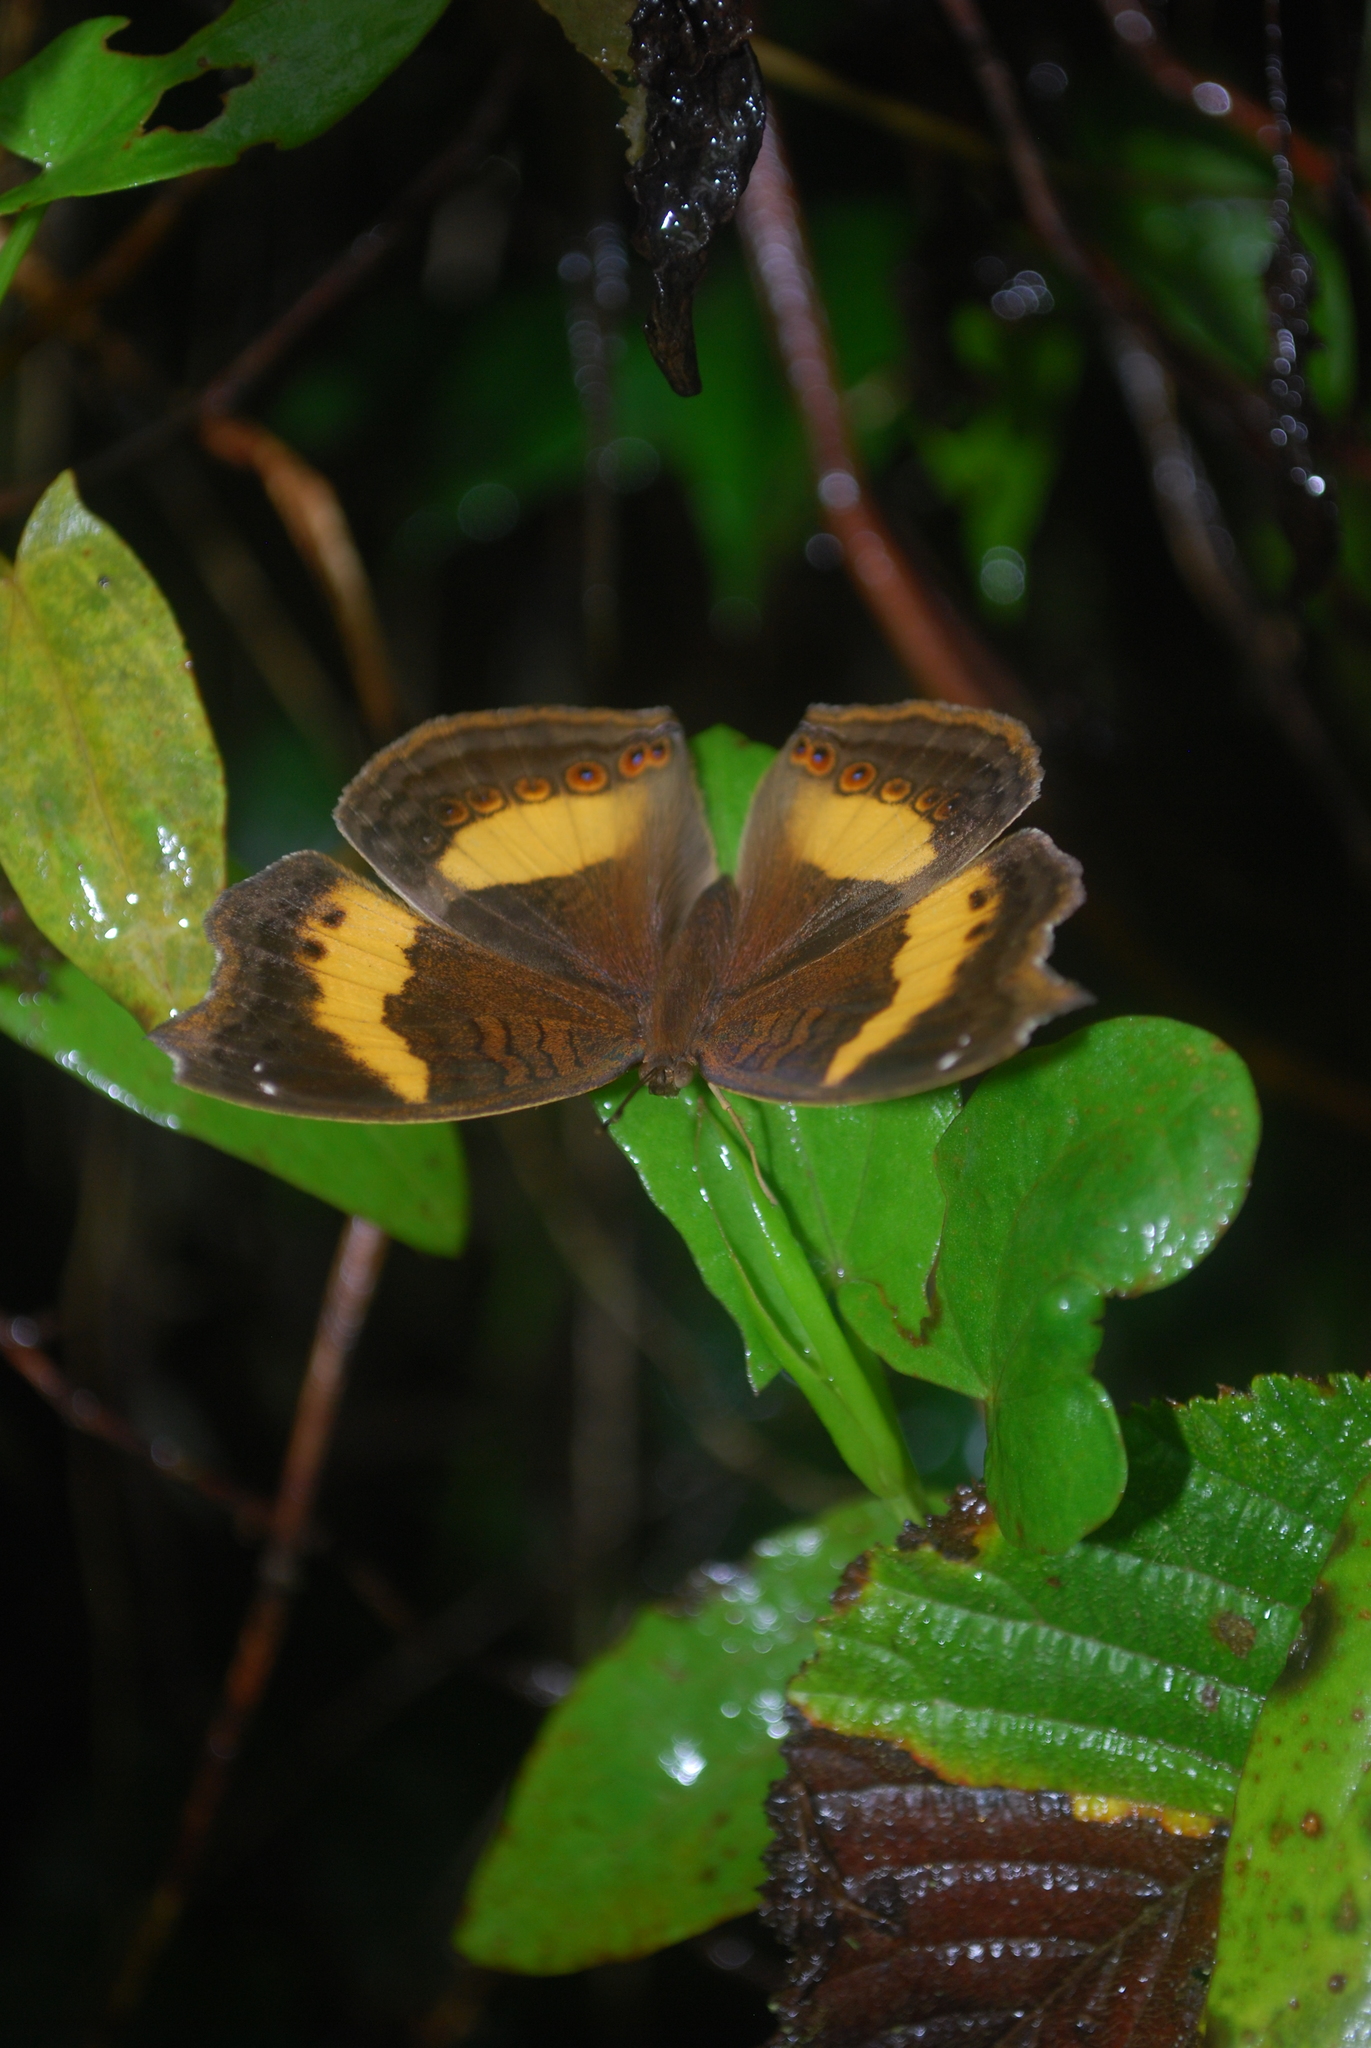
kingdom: Animalia
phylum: Arthropoda
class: Insecta
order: Lepidoptera
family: Nymphalidae
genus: Junonia
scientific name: Junonia terea
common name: Soldier pansy
